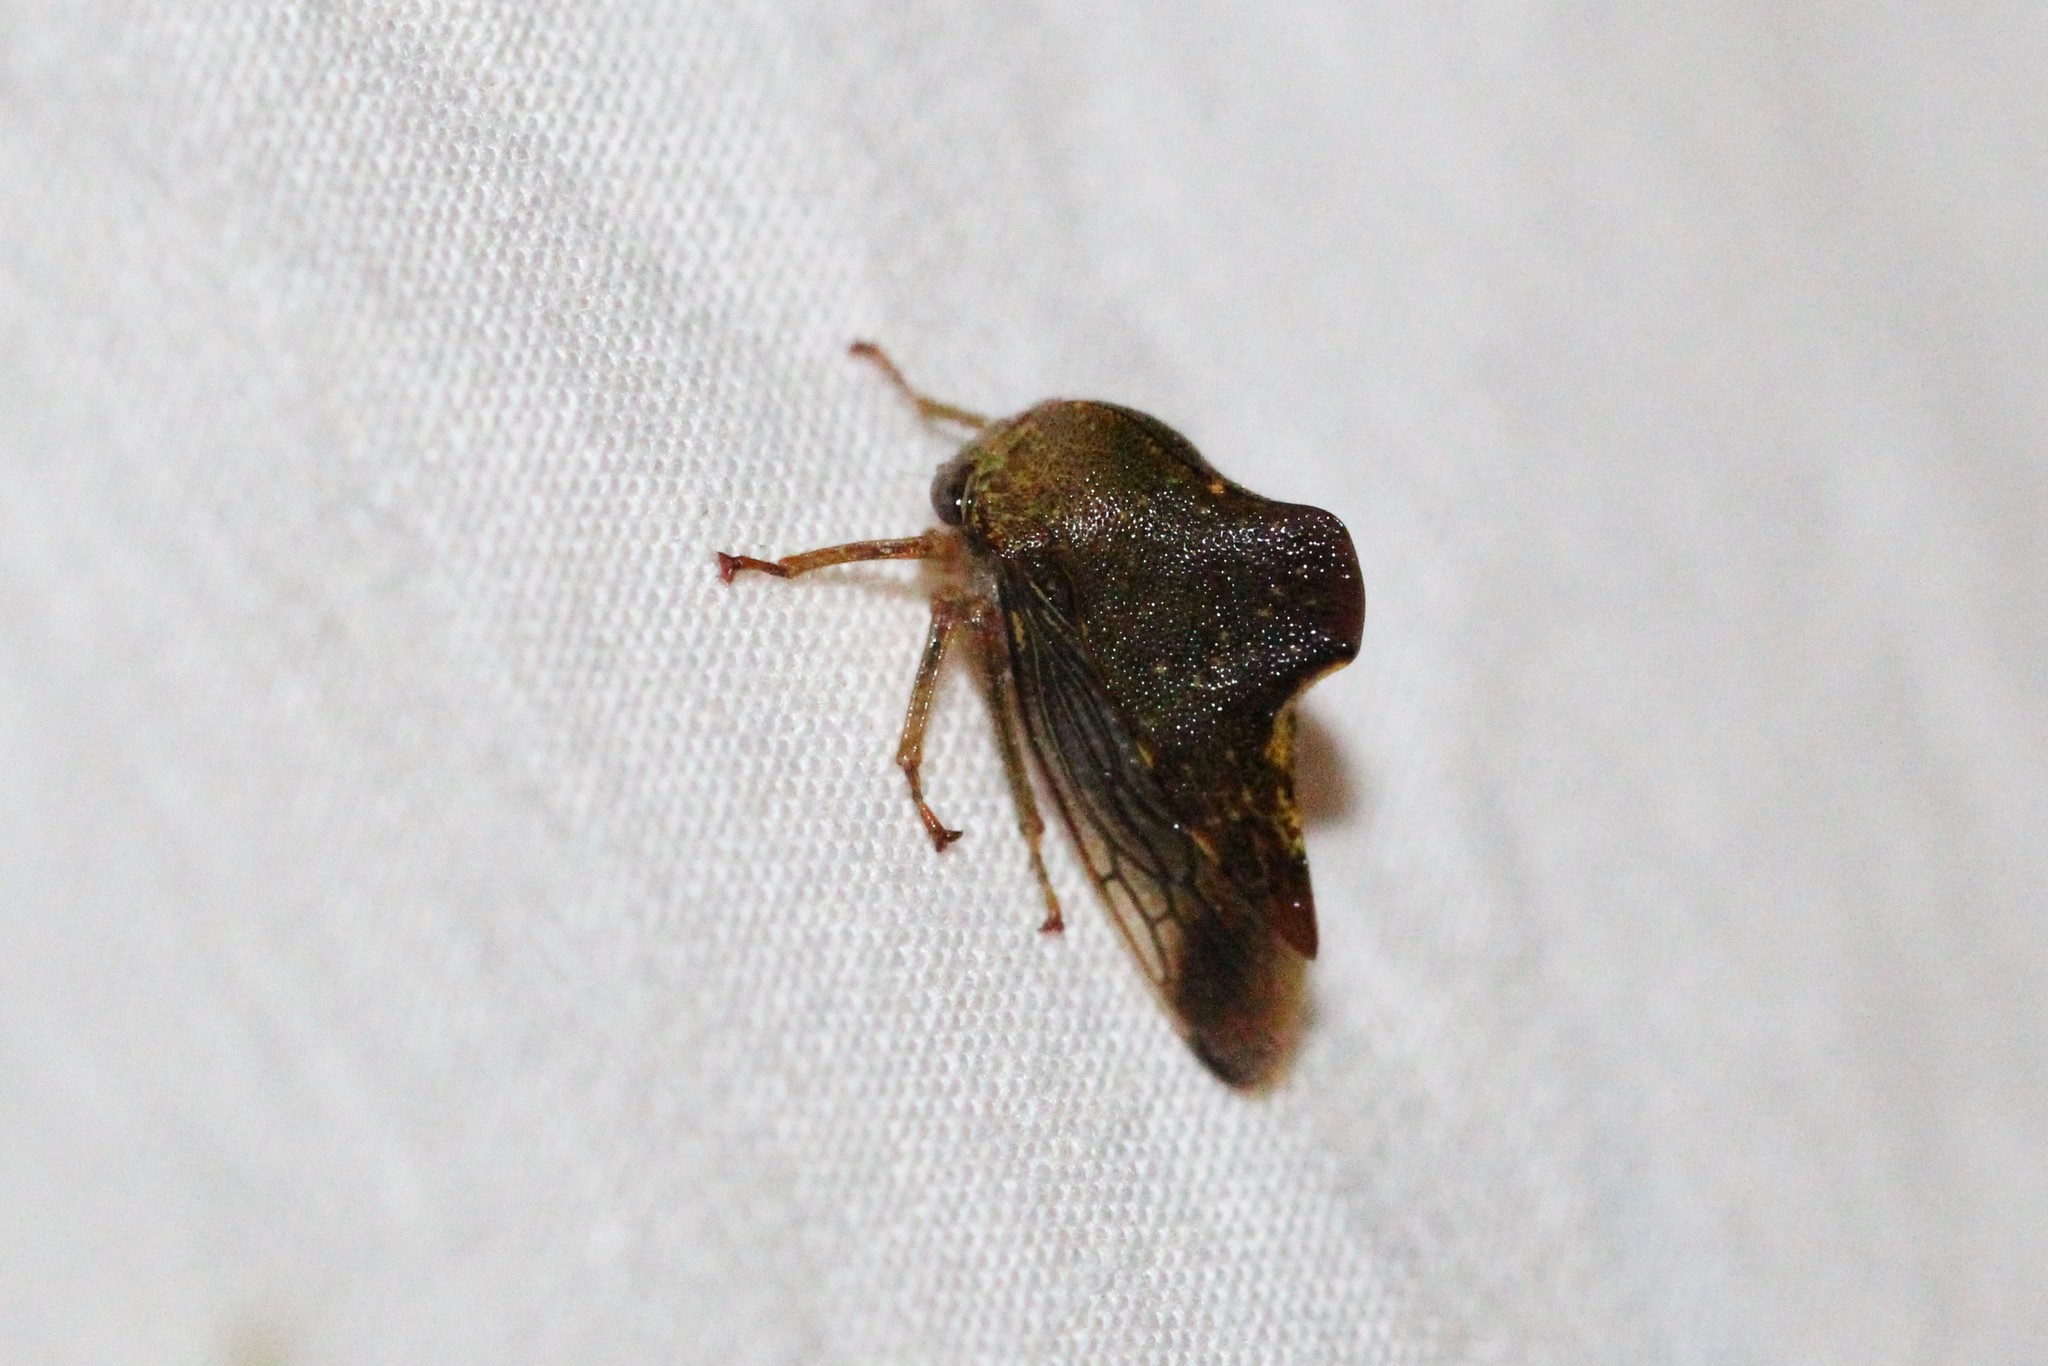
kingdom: Animalia
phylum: Arthropoda
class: Insecta
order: Hemiptera
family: Membracidae
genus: Telamona
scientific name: Telamona monticola
